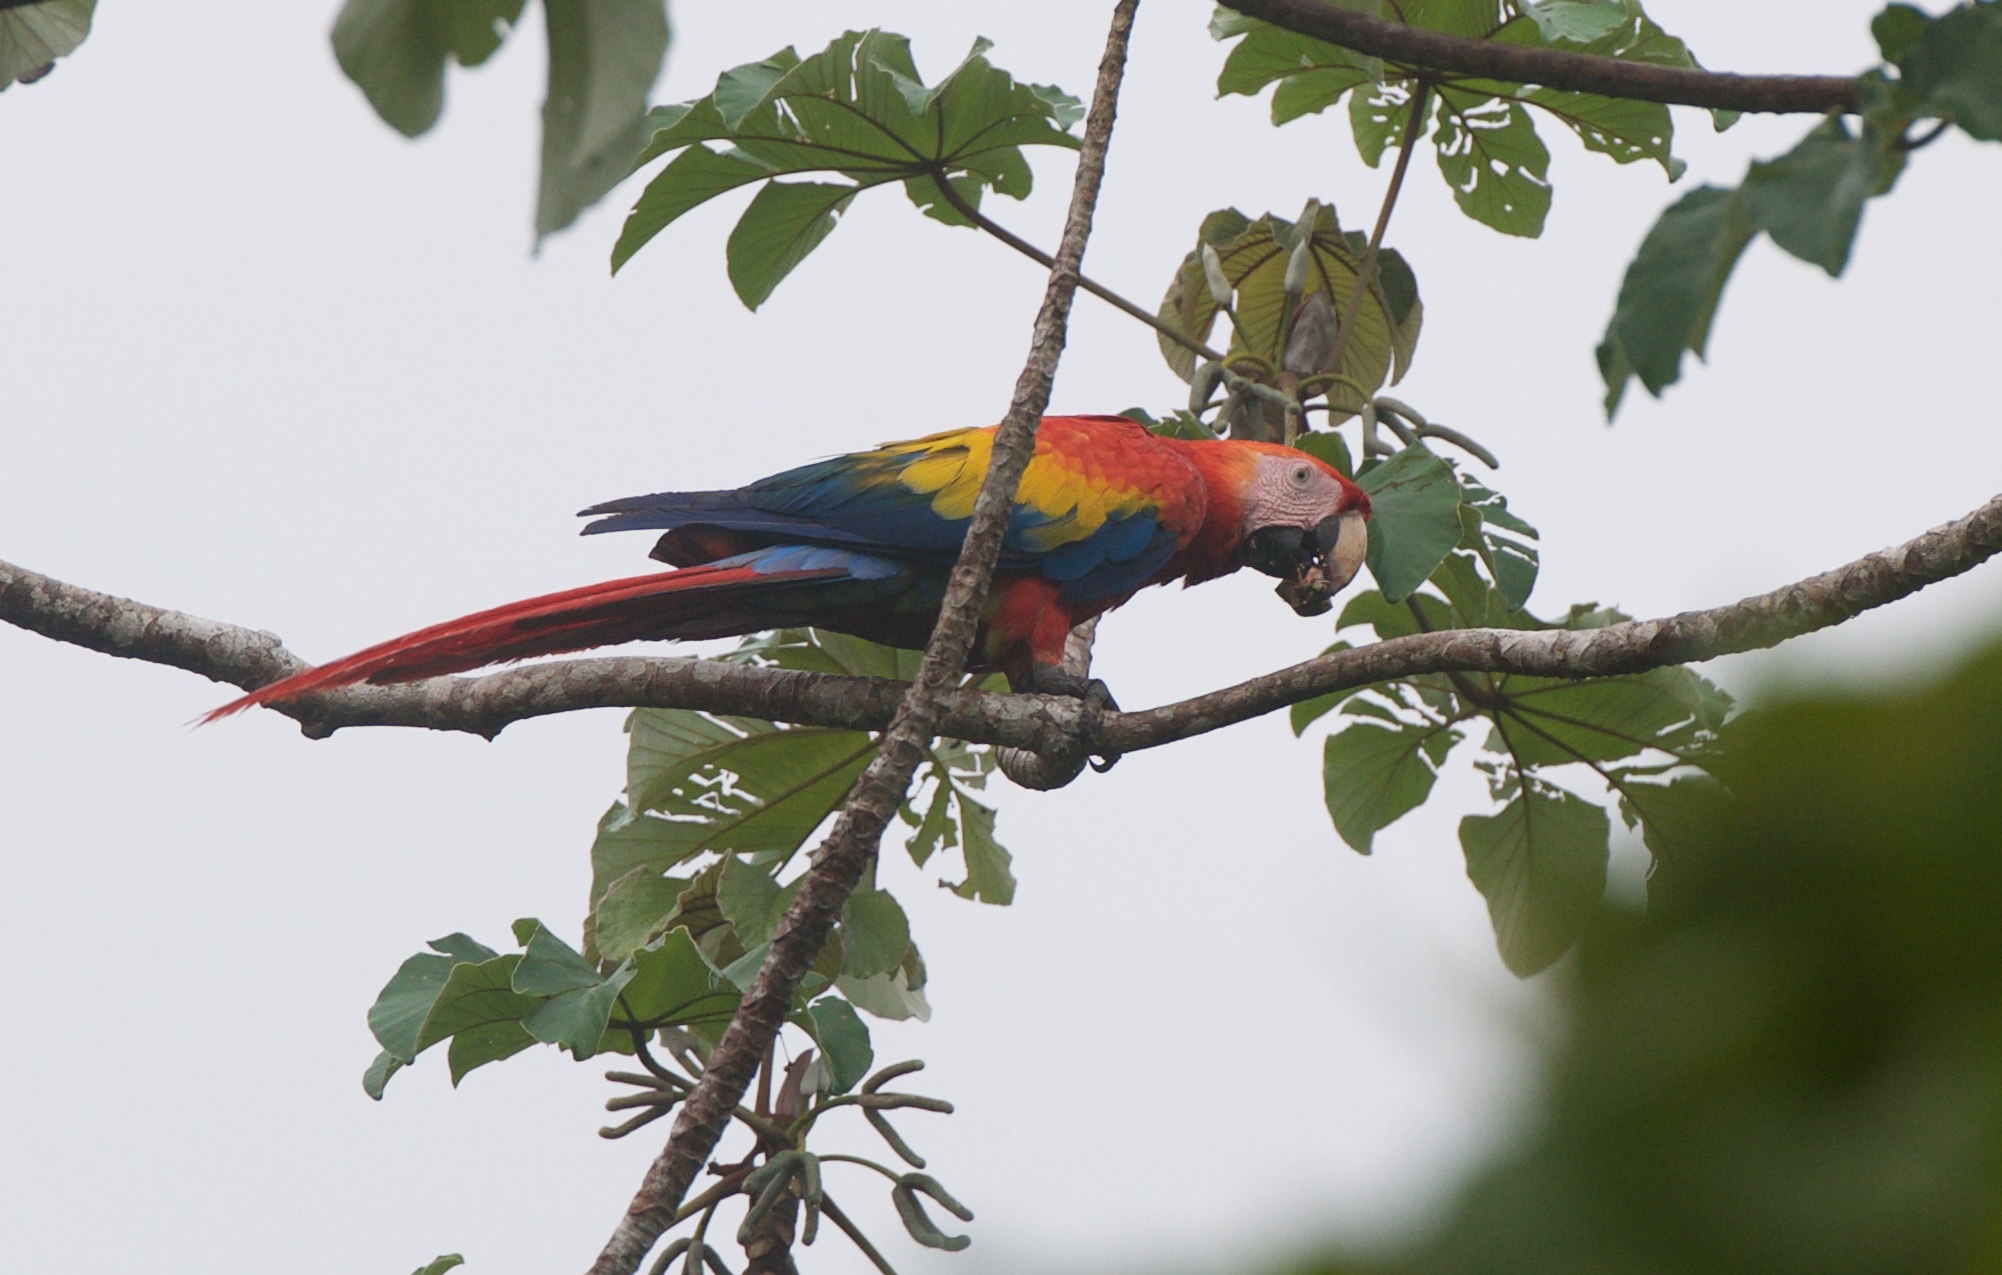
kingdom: Animalia
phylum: Chordata
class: Aves
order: Psittaciformes
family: Psittacidae
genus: Ara
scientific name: Ara macao
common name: Scarlet macaw
